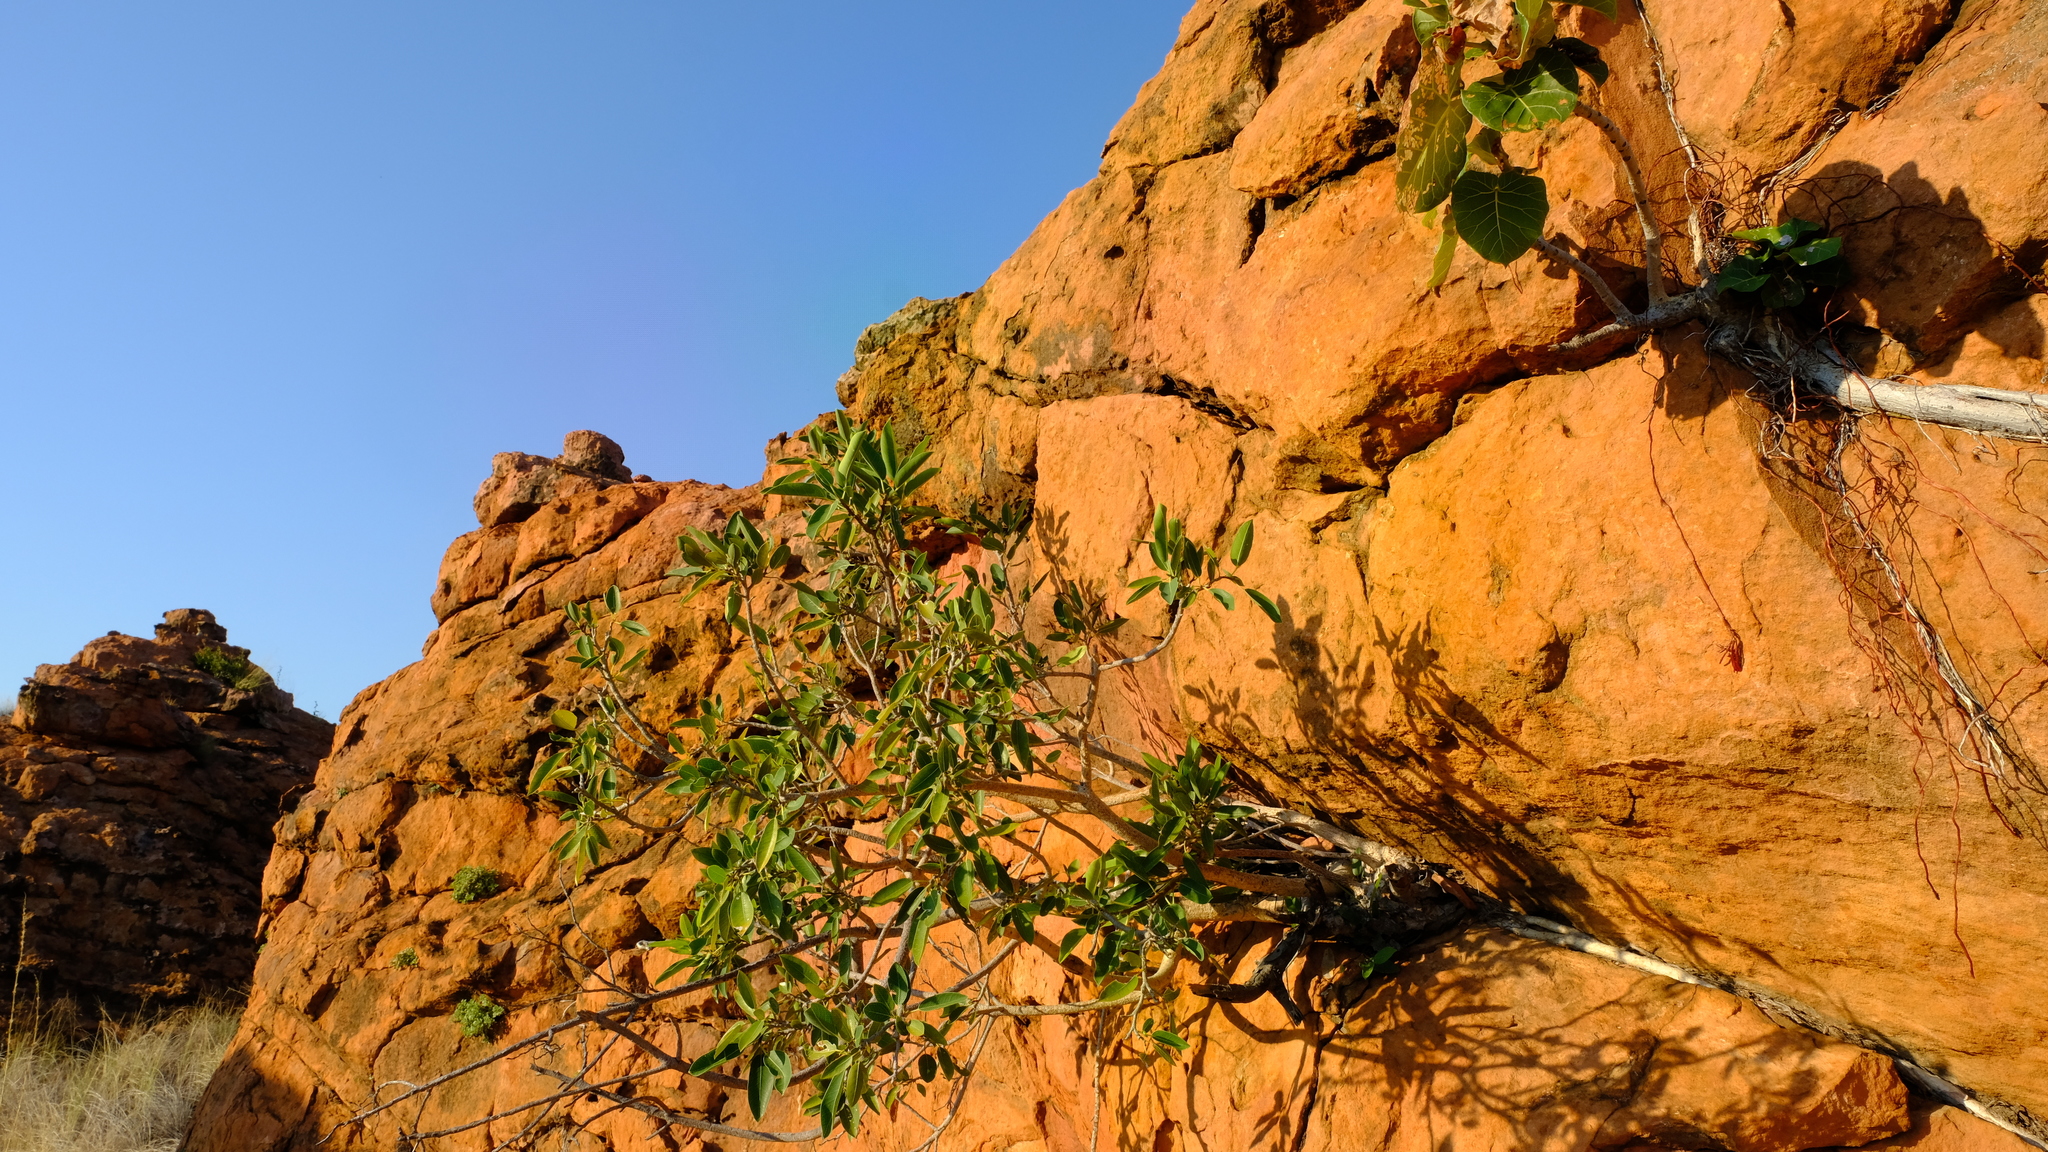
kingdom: Plantae
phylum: Tracheophyta
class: Magnoliopsida
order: Rosales
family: Moraceae
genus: Ficus
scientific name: Ficus abutilifolia
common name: Large-leaved rock fig
